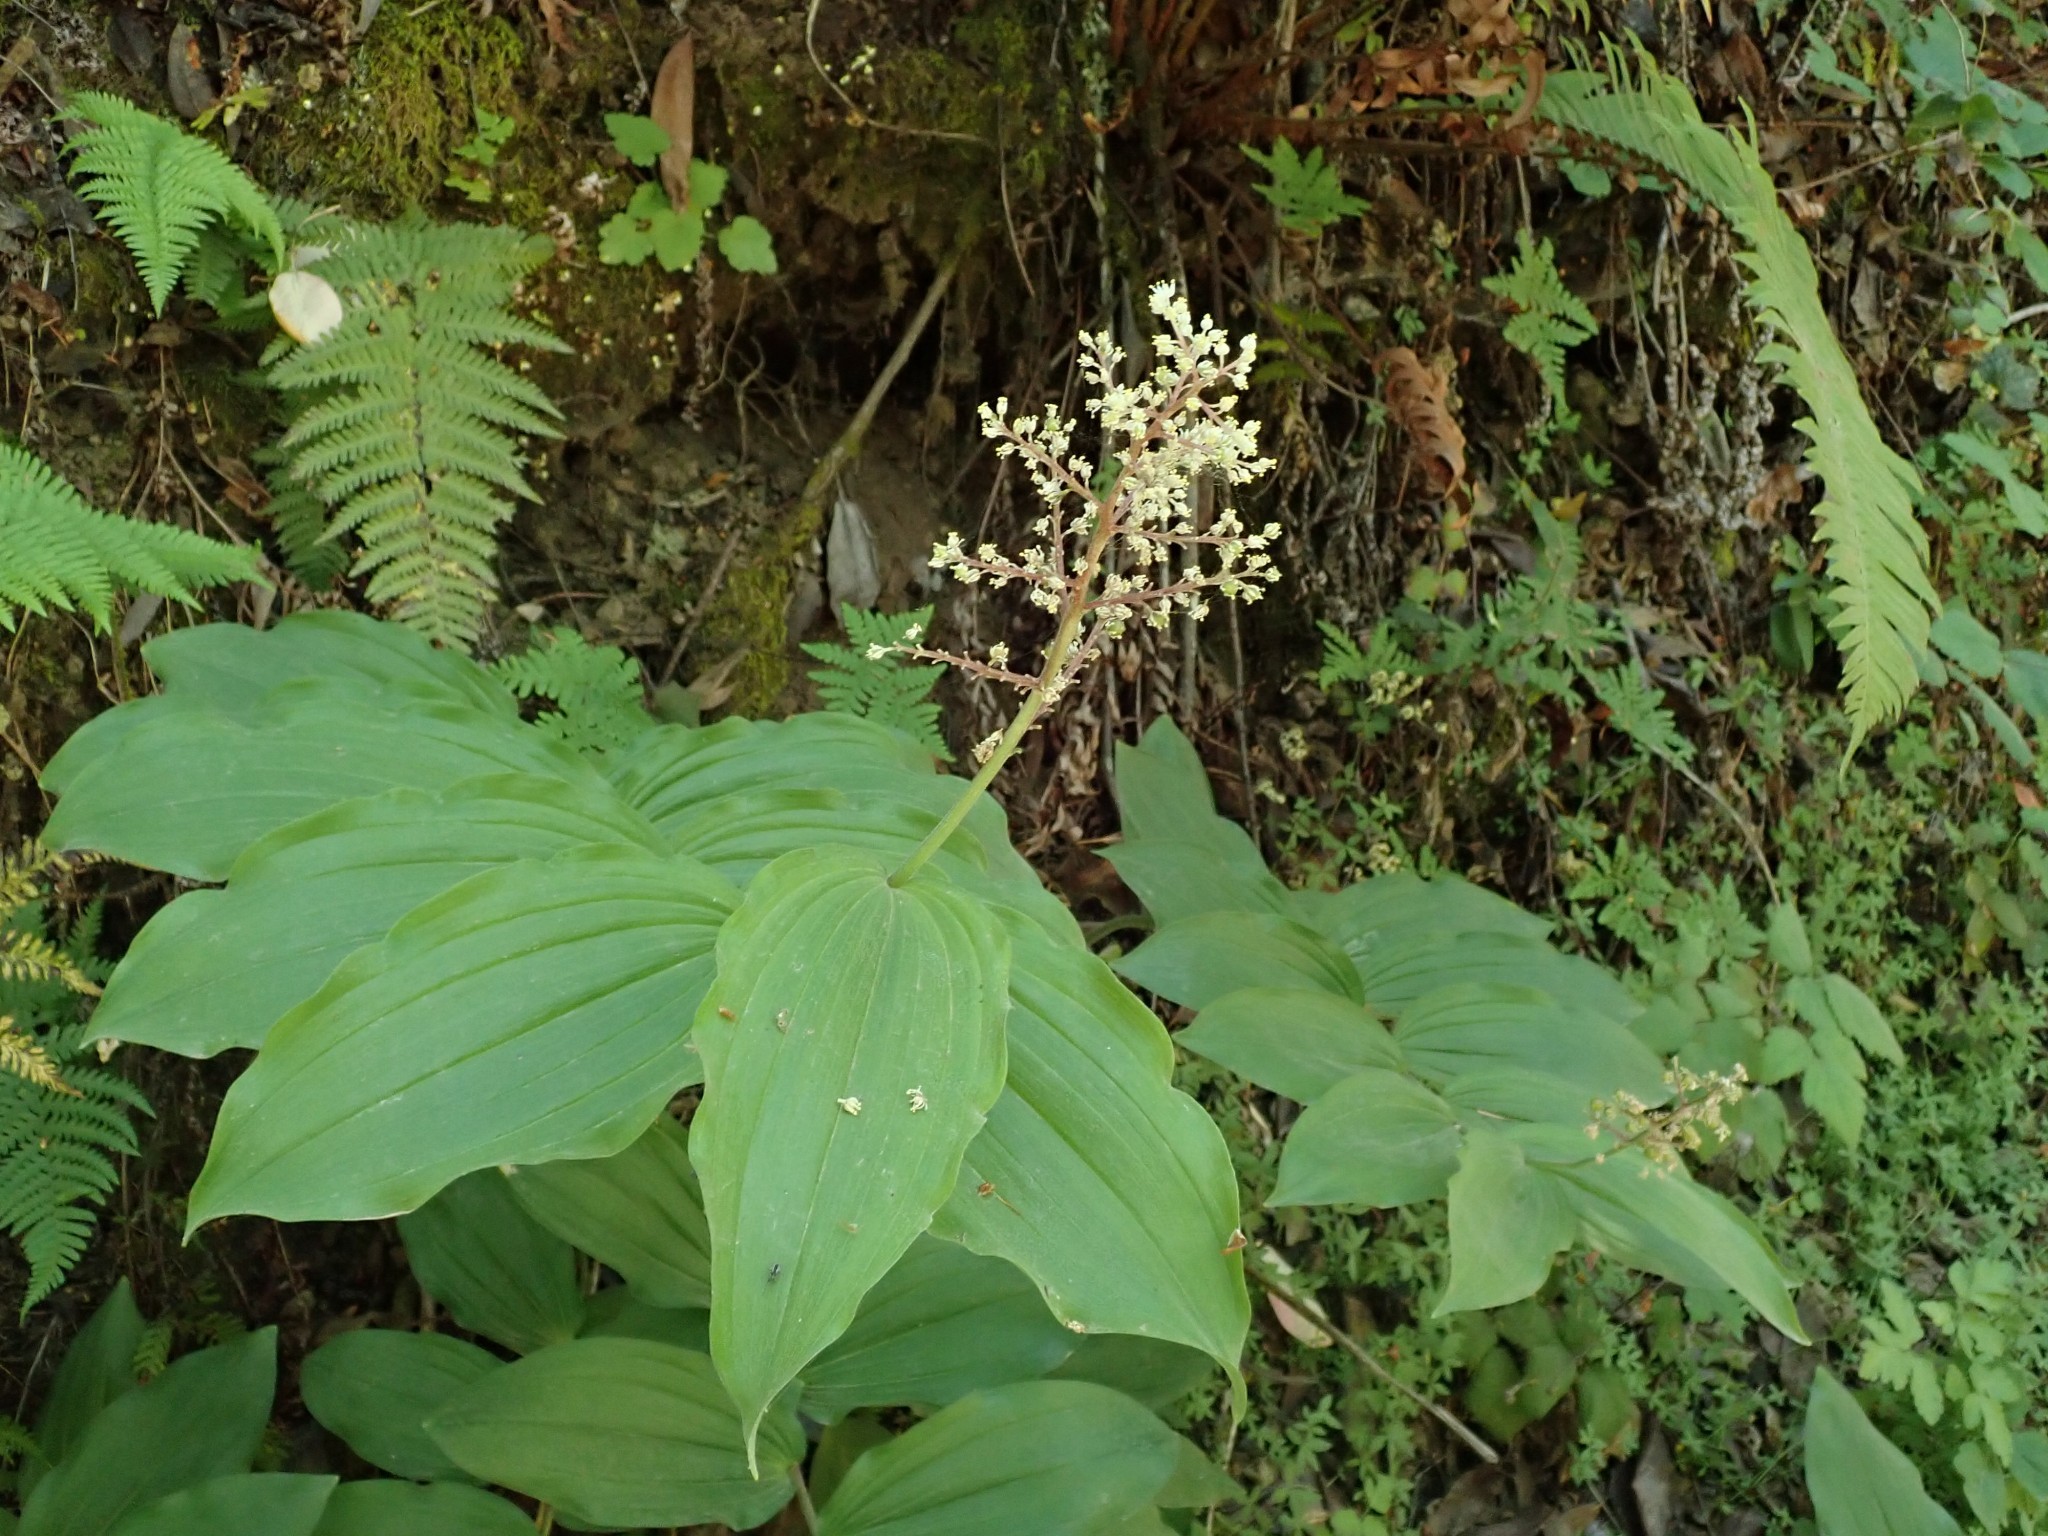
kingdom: Plantae
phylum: Tracheophyta
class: Liliopsida
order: Asparagales
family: Asparagaceae
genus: Maianthemum
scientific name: Maianthemum racemosum
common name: False spikenard
